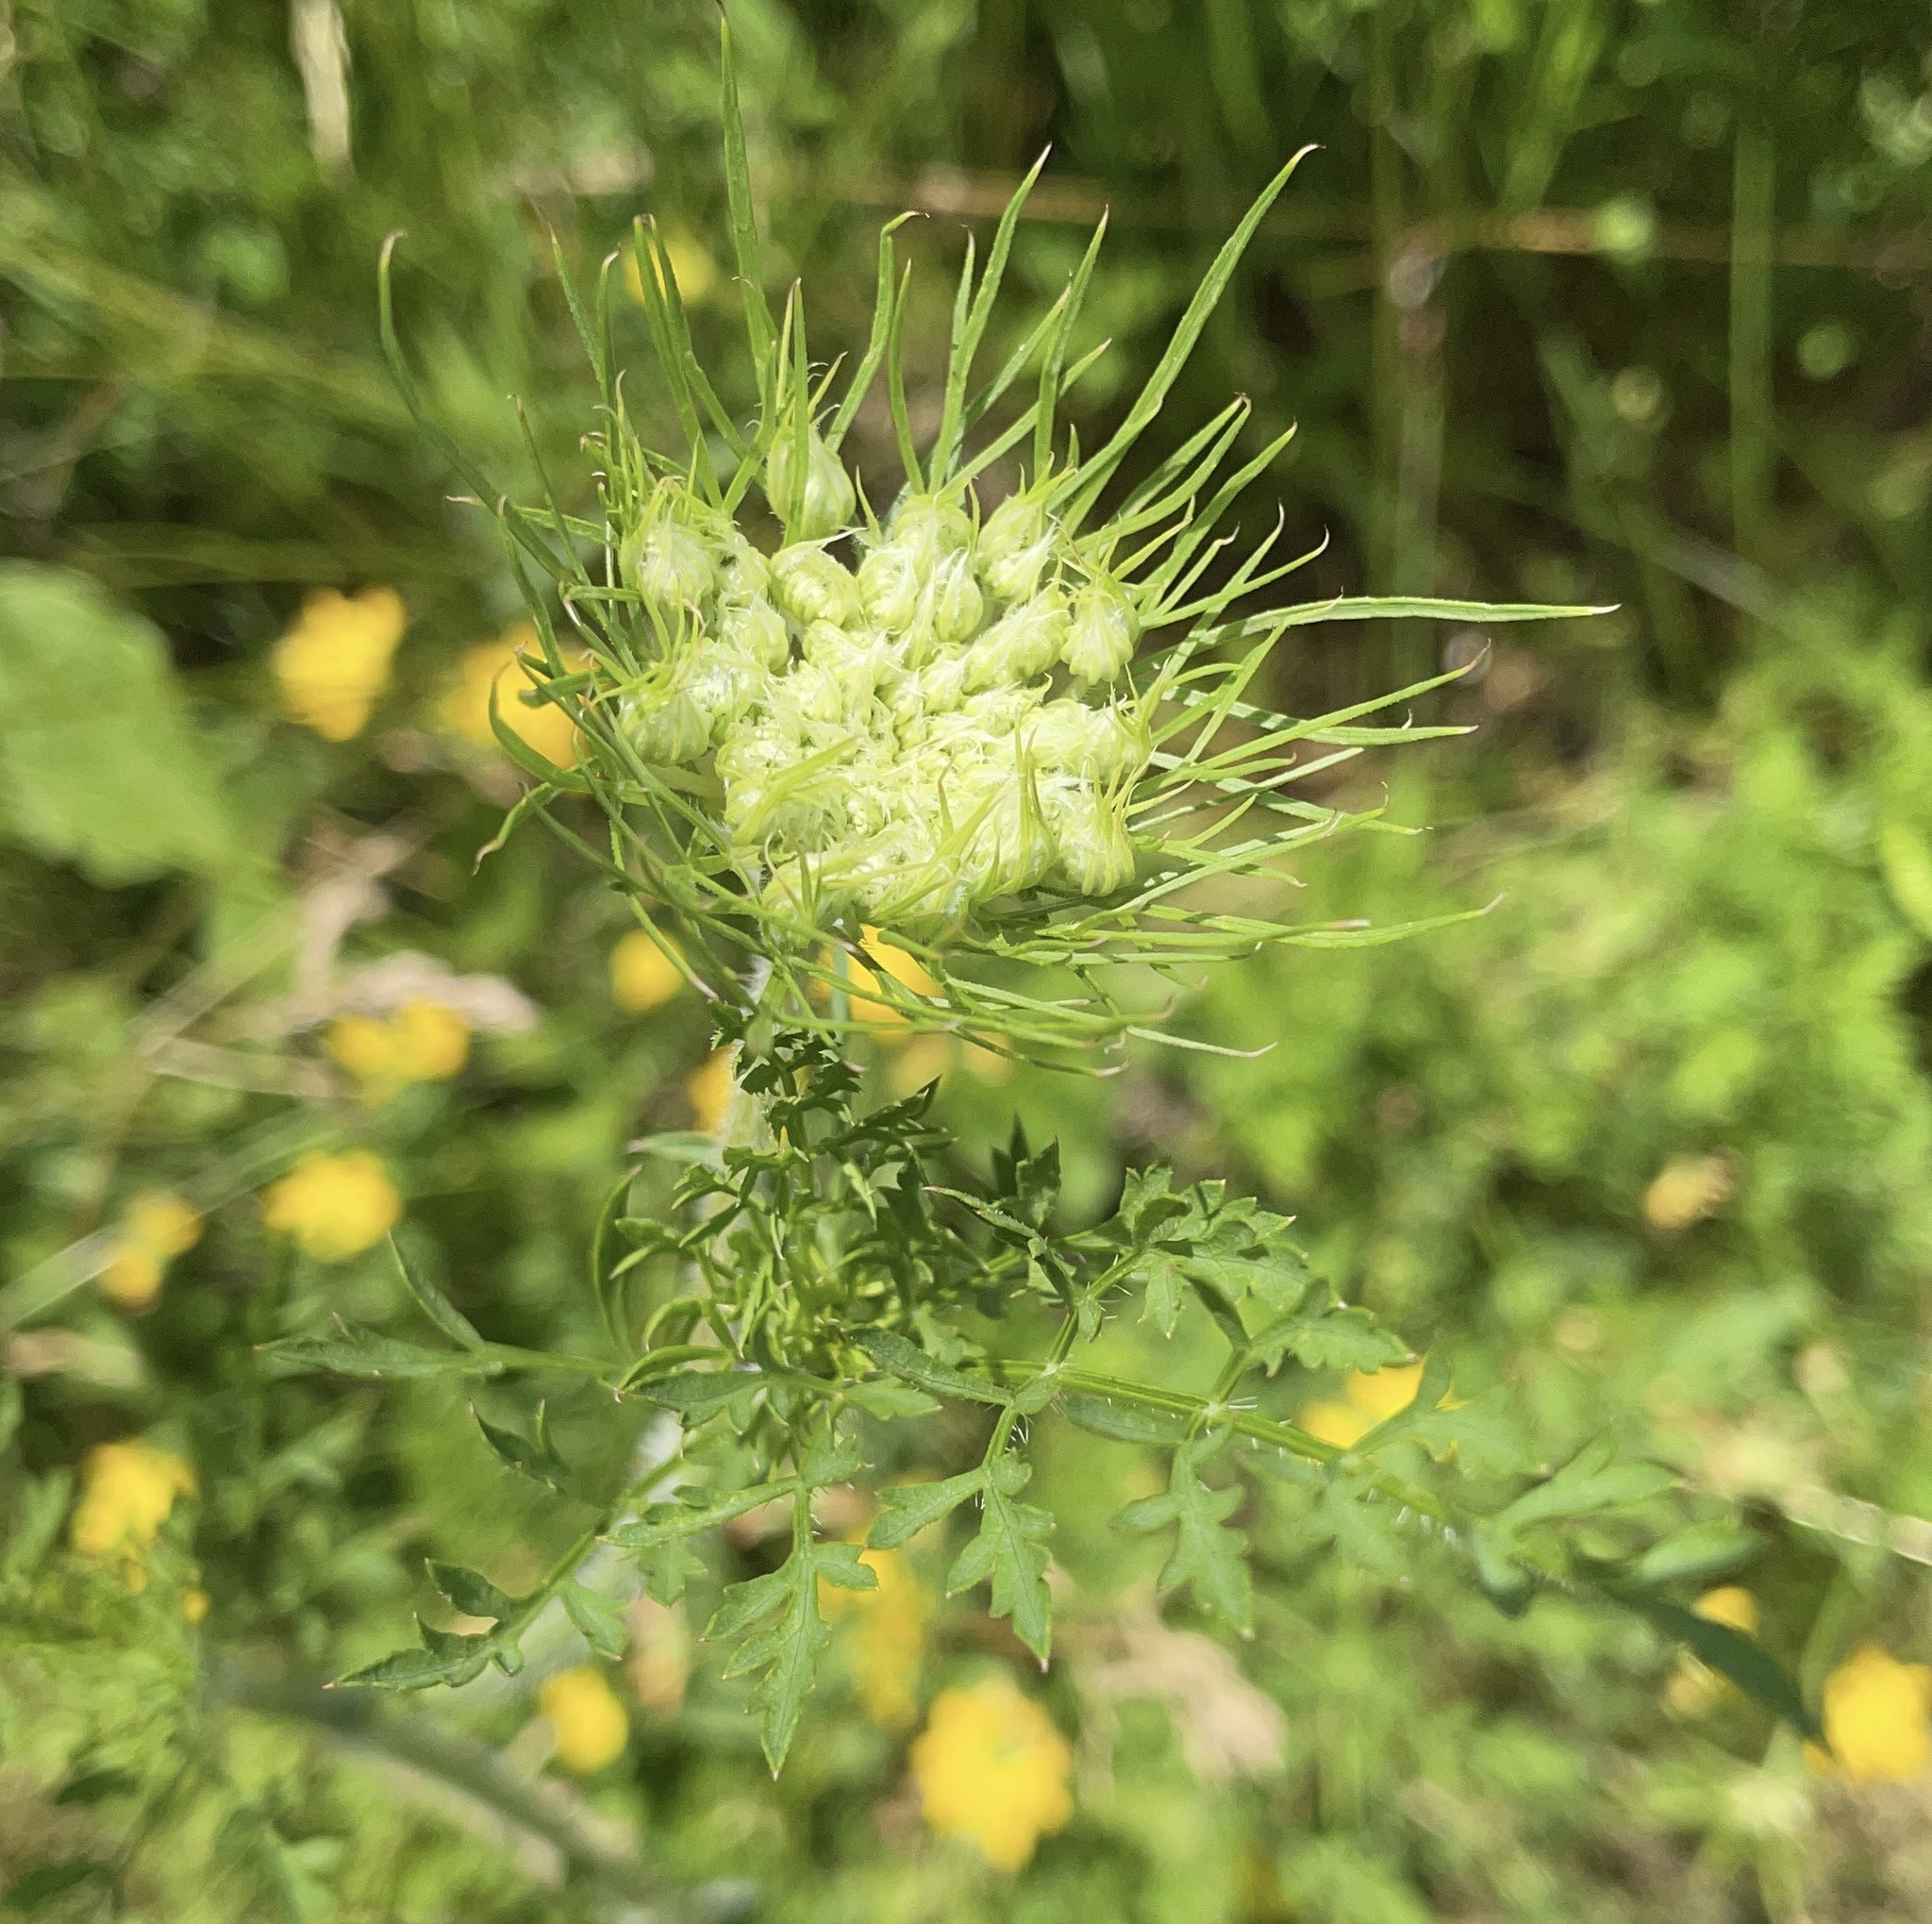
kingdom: Plantae
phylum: Tracheophyta
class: Magnoliopsida
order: Apiales
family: Apiaceae
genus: Daucus
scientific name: Daucus carota
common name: Wild carrot
